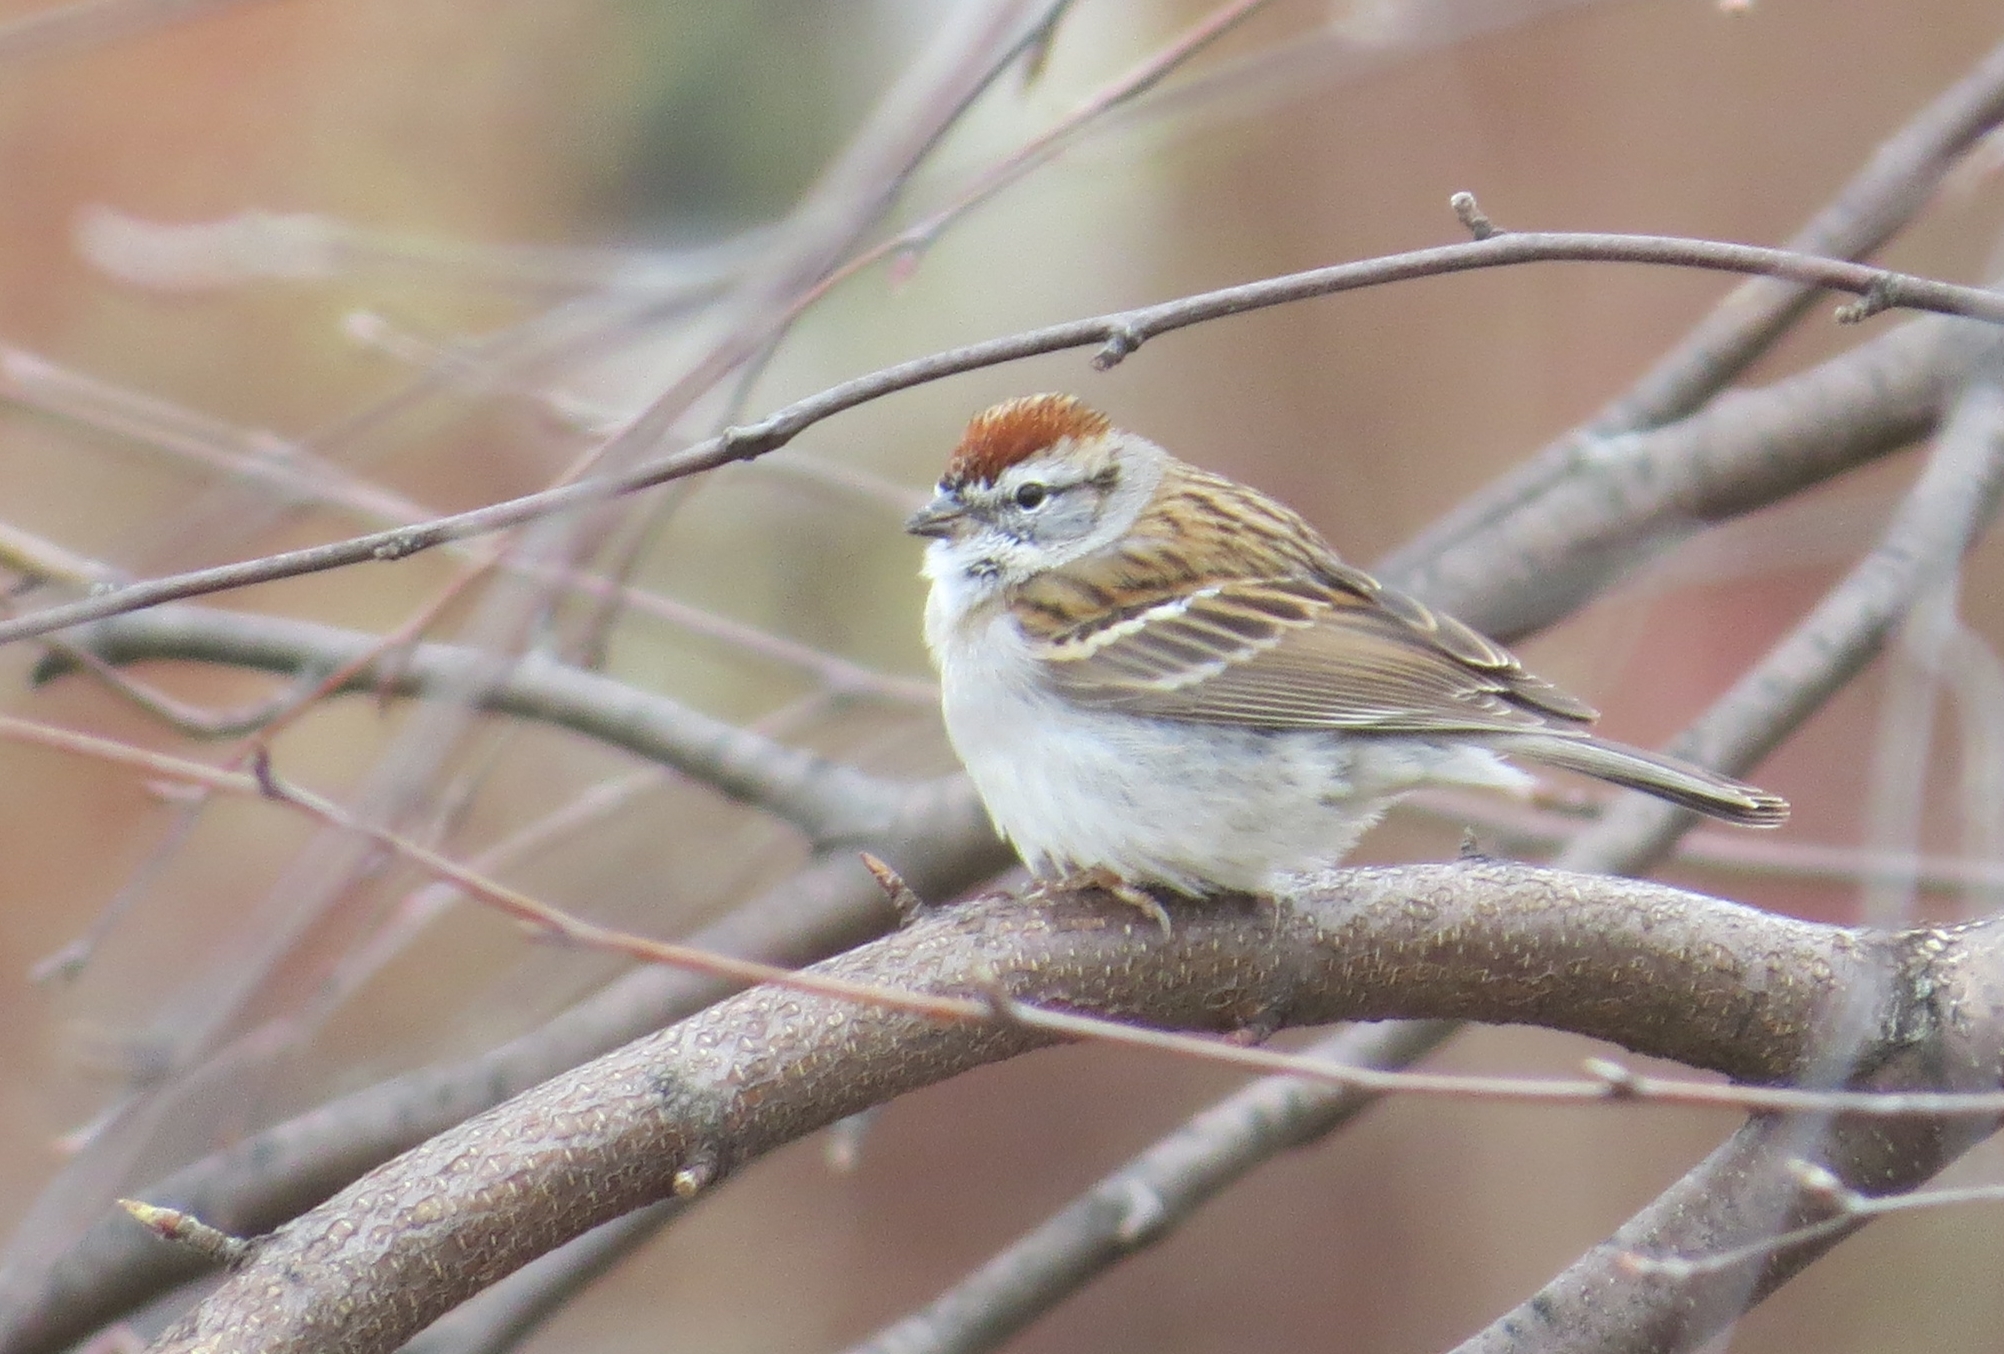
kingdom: Animalia
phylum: Chordata
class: Aves
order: Passeriformes
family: Passerellidae
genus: Spizella
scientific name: Spizella passerina
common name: Chipping sparrow
